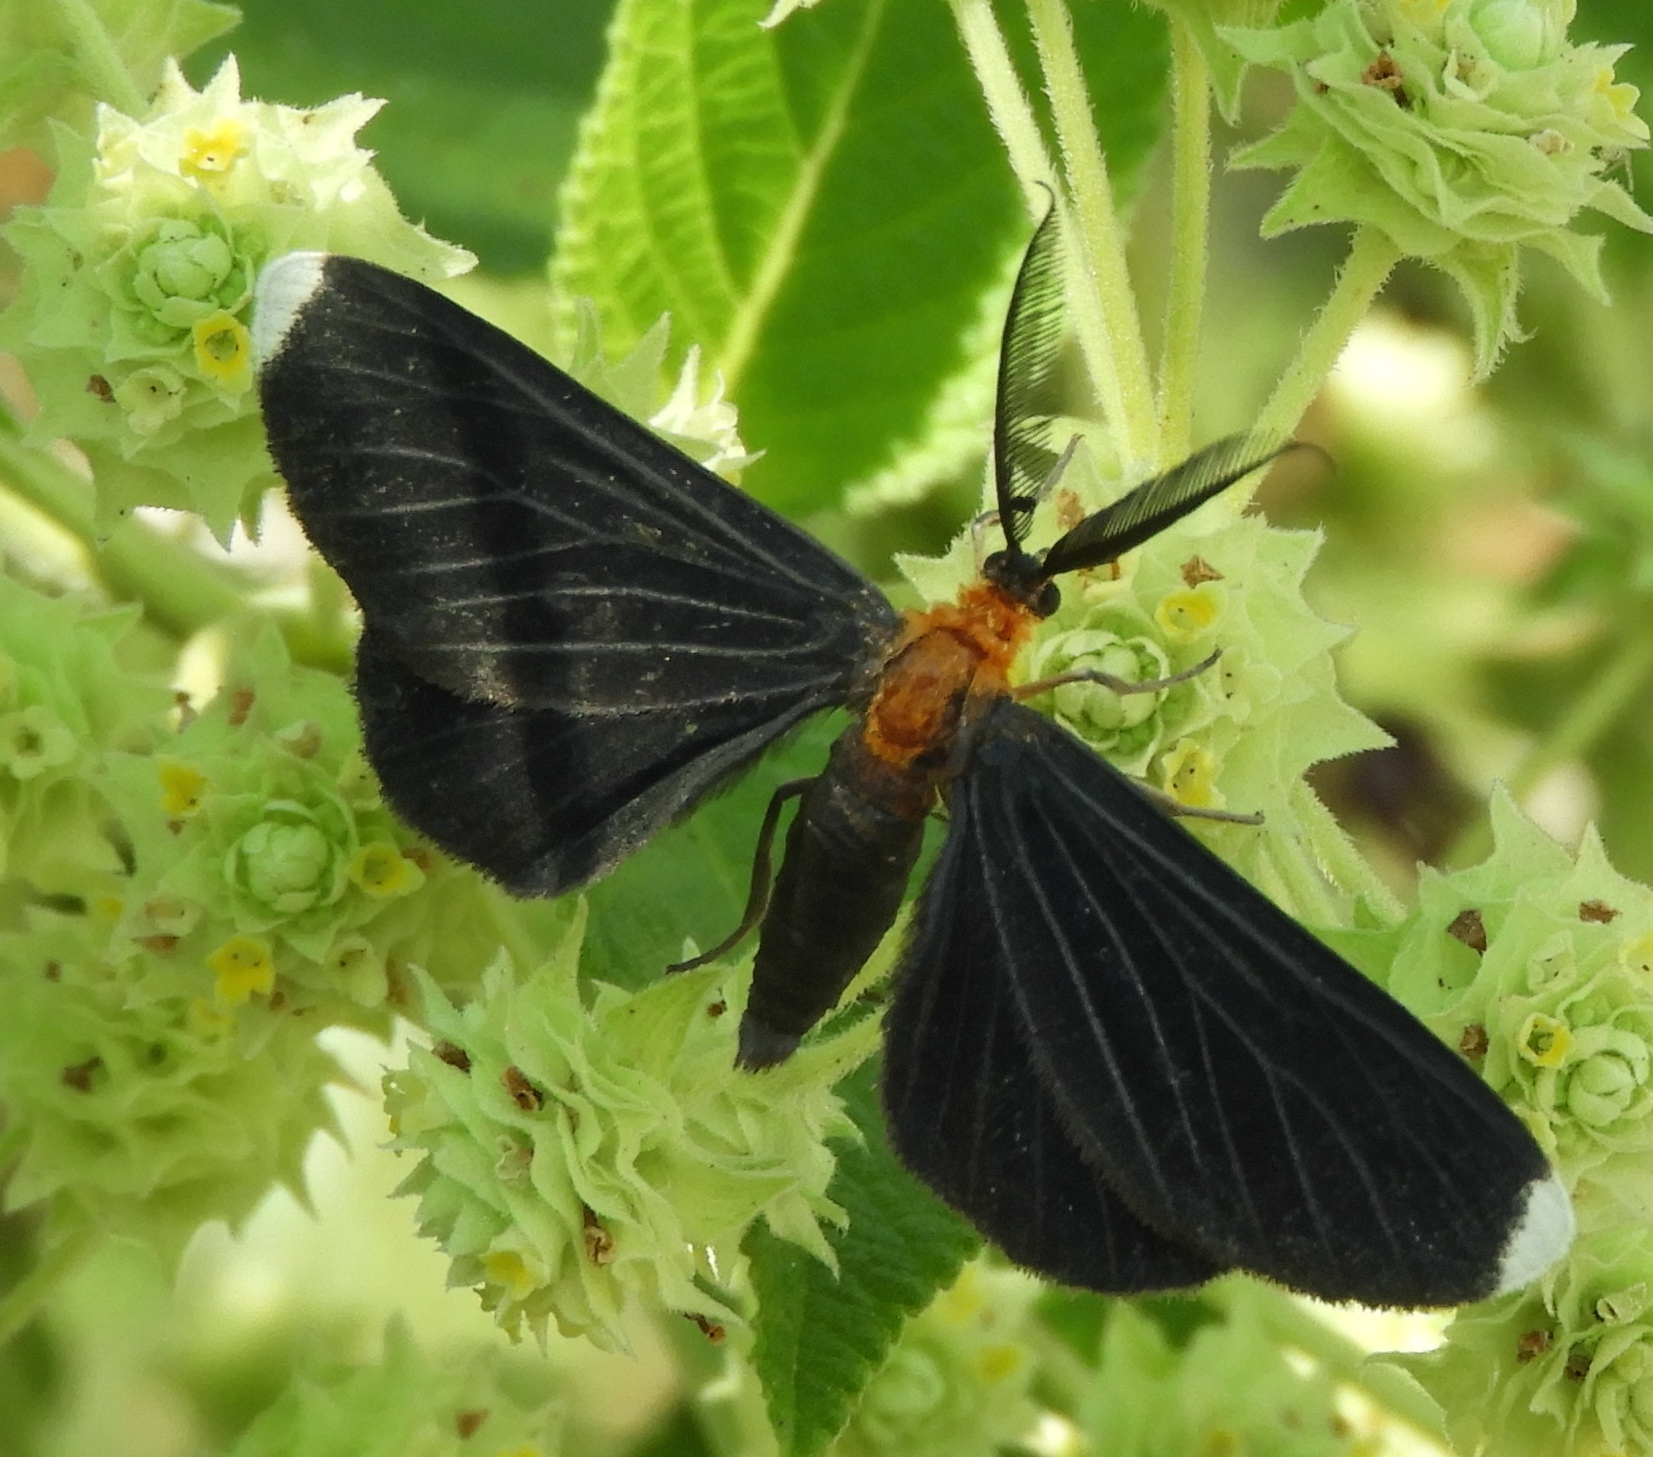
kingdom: Animalia
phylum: Arthropoda
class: Insecta
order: Lepidoptera
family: Geometridae
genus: Melanchroia
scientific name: Melanchroia chephise
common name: White-tipped black
